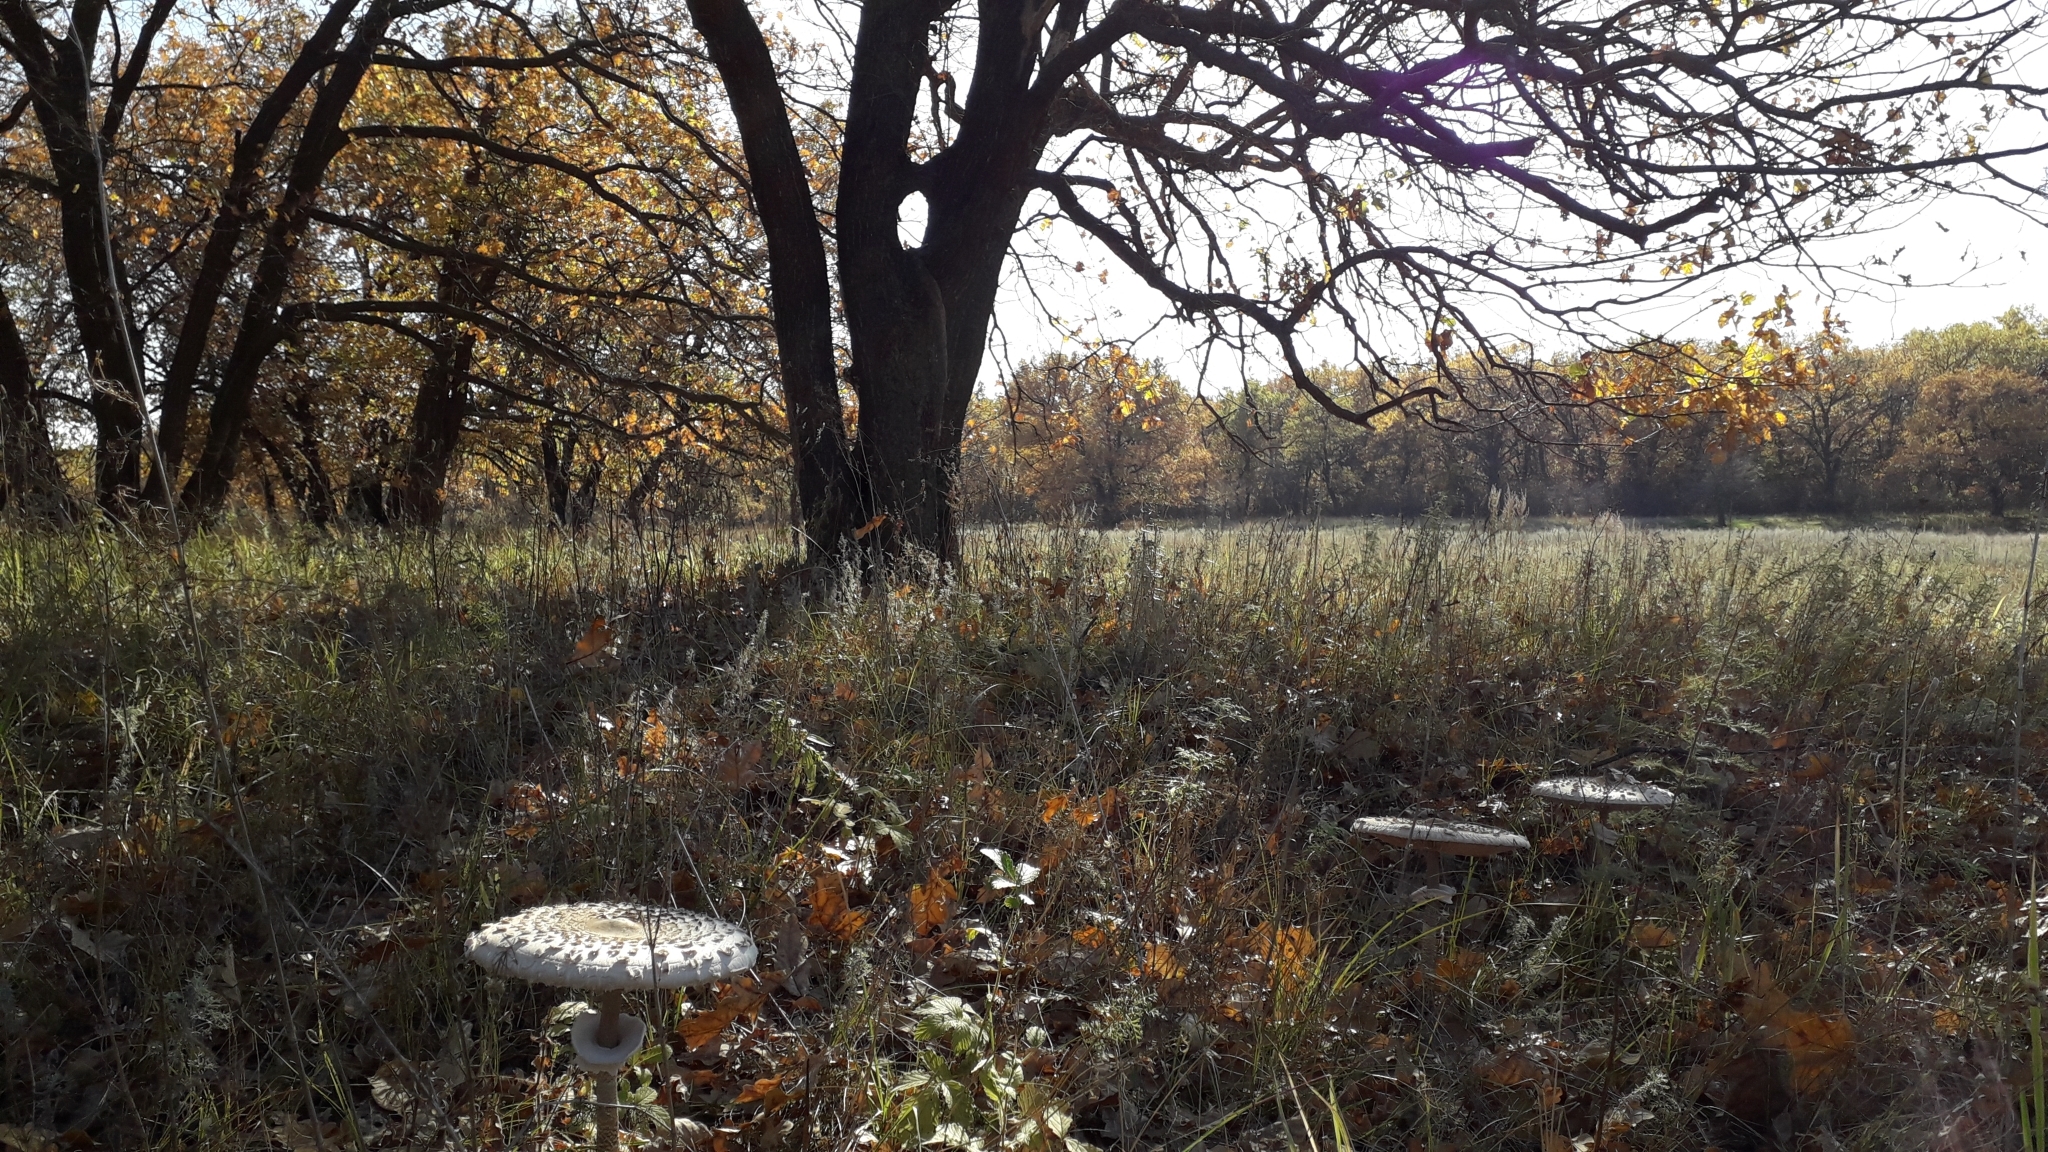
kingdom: Fungi
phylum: Basidiomycota
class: Agaricomycetes
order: Agaricales
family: Agaricaceae
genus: Macrolepiota
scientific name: Macrolepiota procera
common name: Parasol
